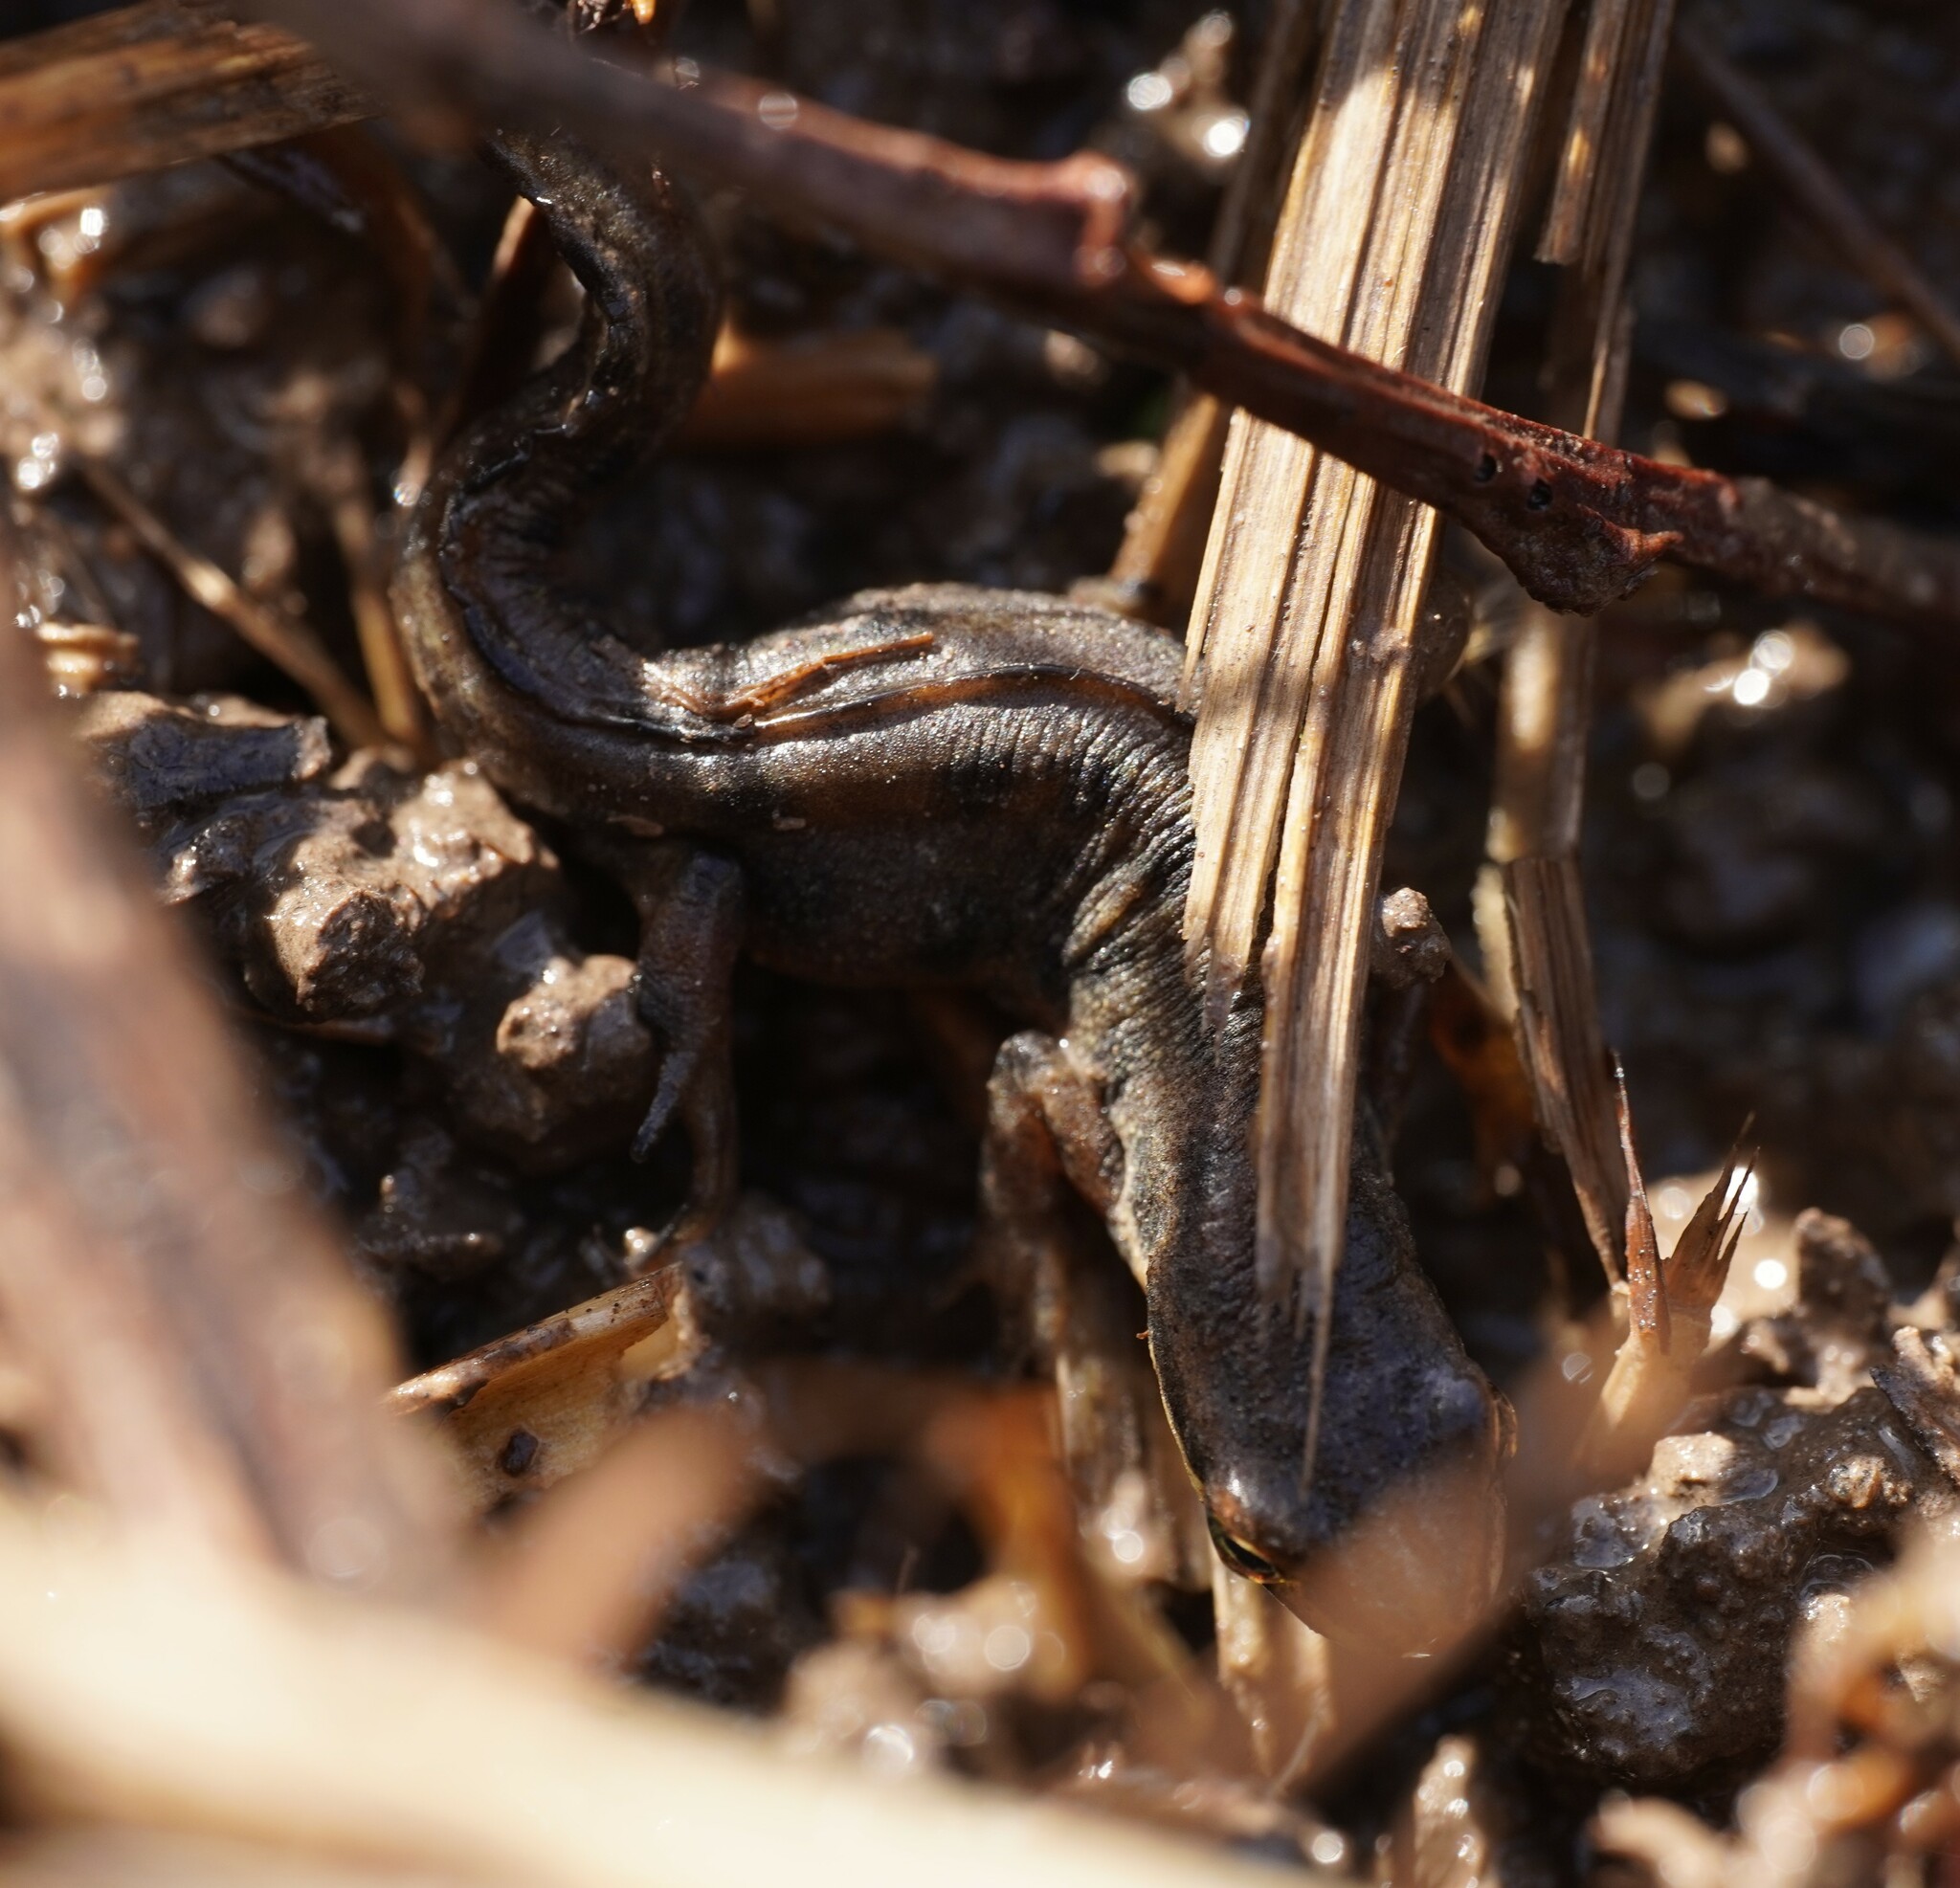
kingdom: Animalia
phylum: Chordata
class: Amphibia
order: Caudata
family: Salamandridae
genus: Lissotriton
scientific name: Lissotriton vulgaris
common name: Smooth newt
